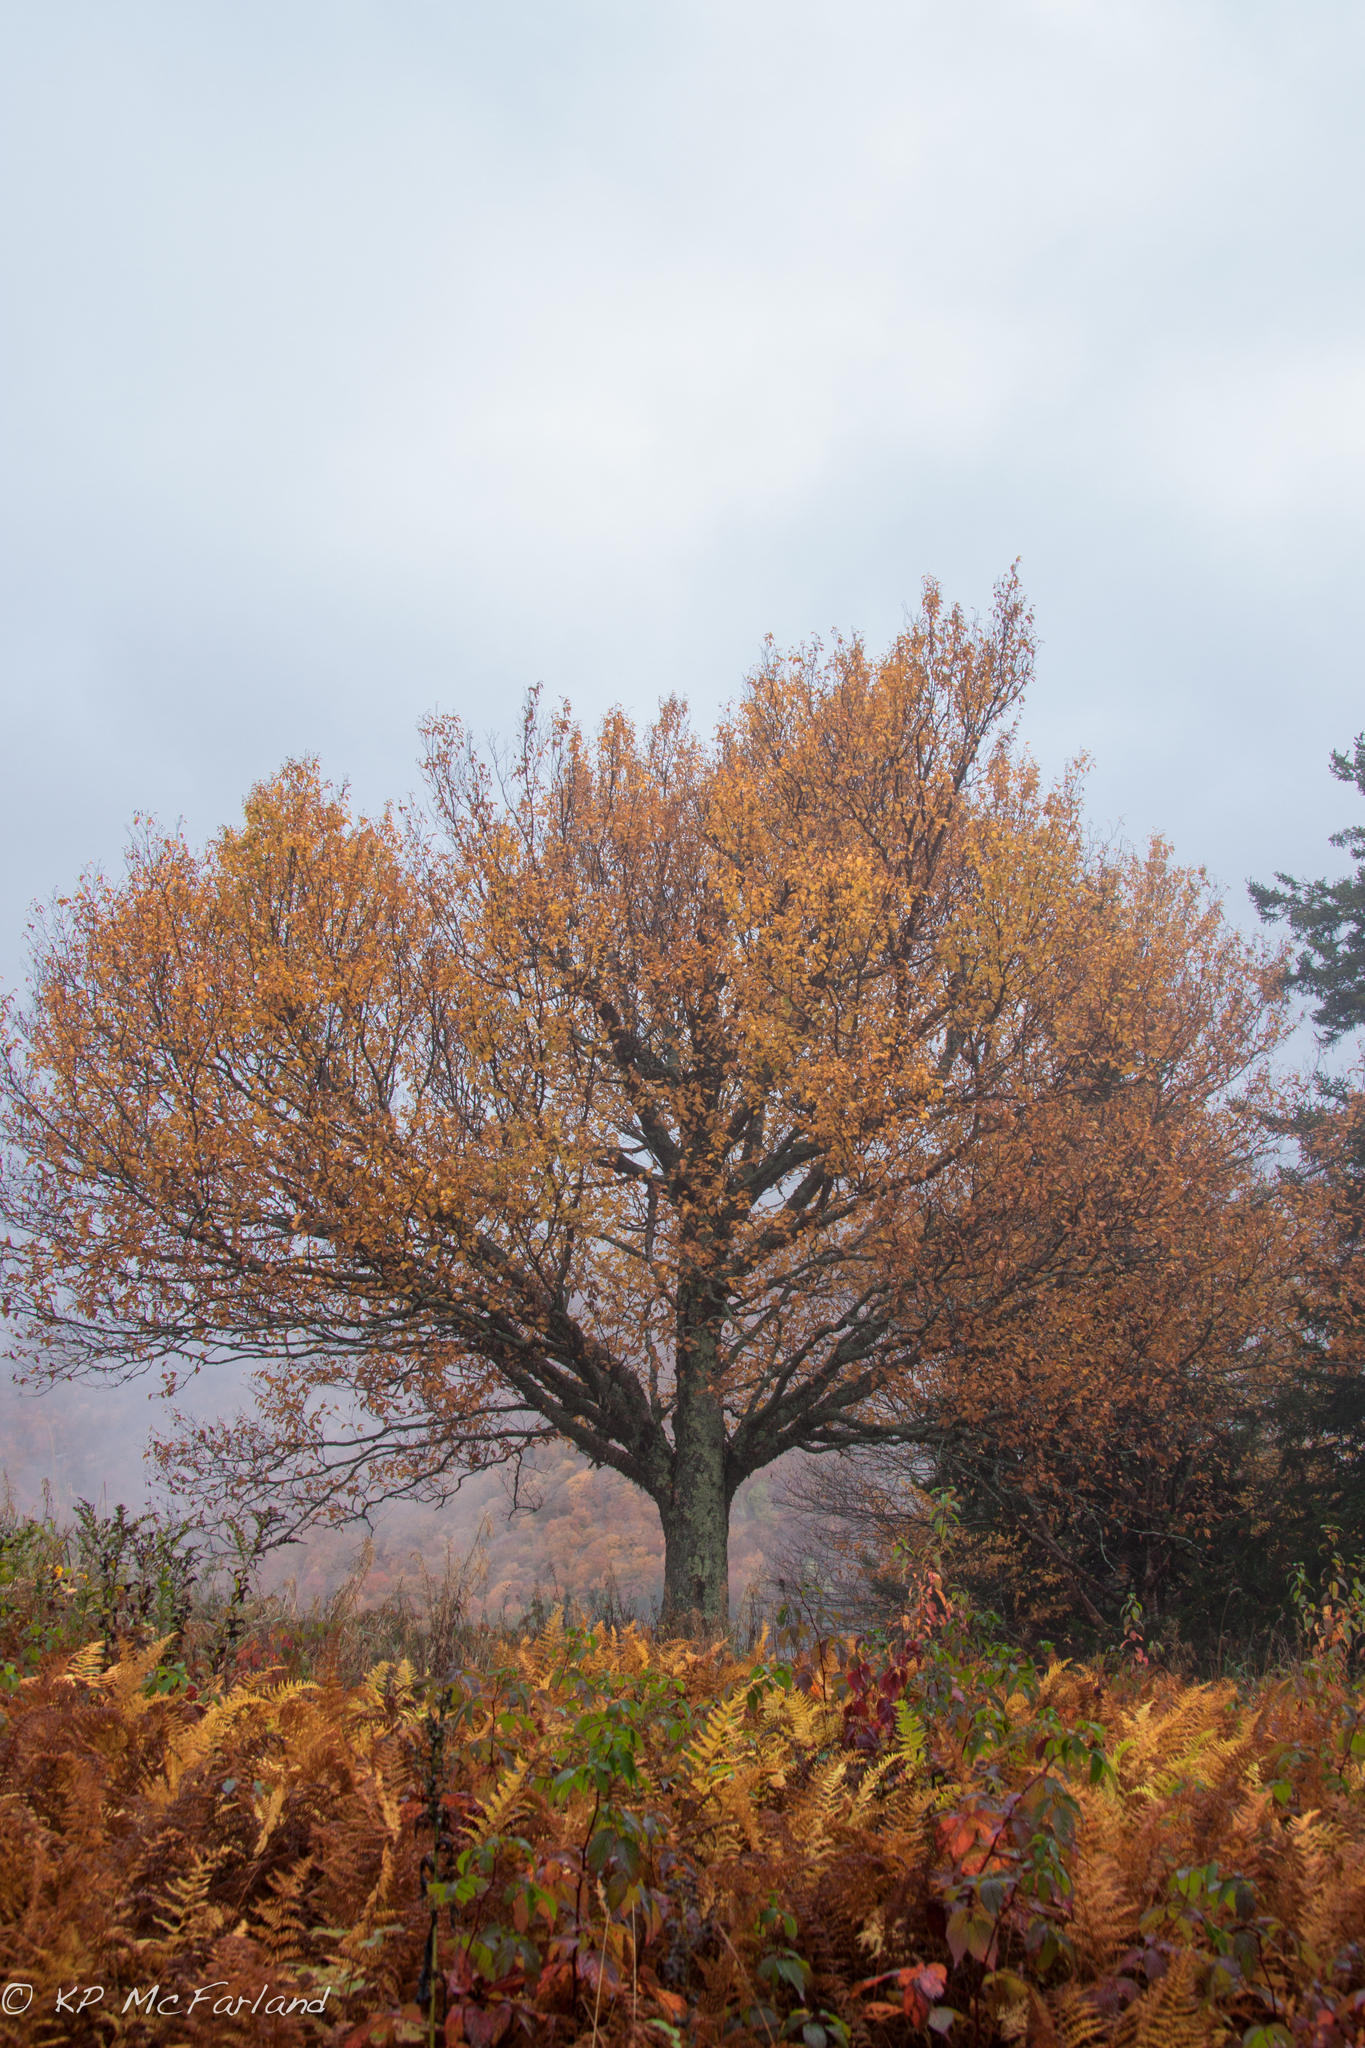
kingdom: Plantae
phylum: Tracheophyta
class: Magnoliopsida
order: Fagales
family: Betulaceae
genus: Betula
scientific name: Betula alleghaniensis
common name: Yellow birch
